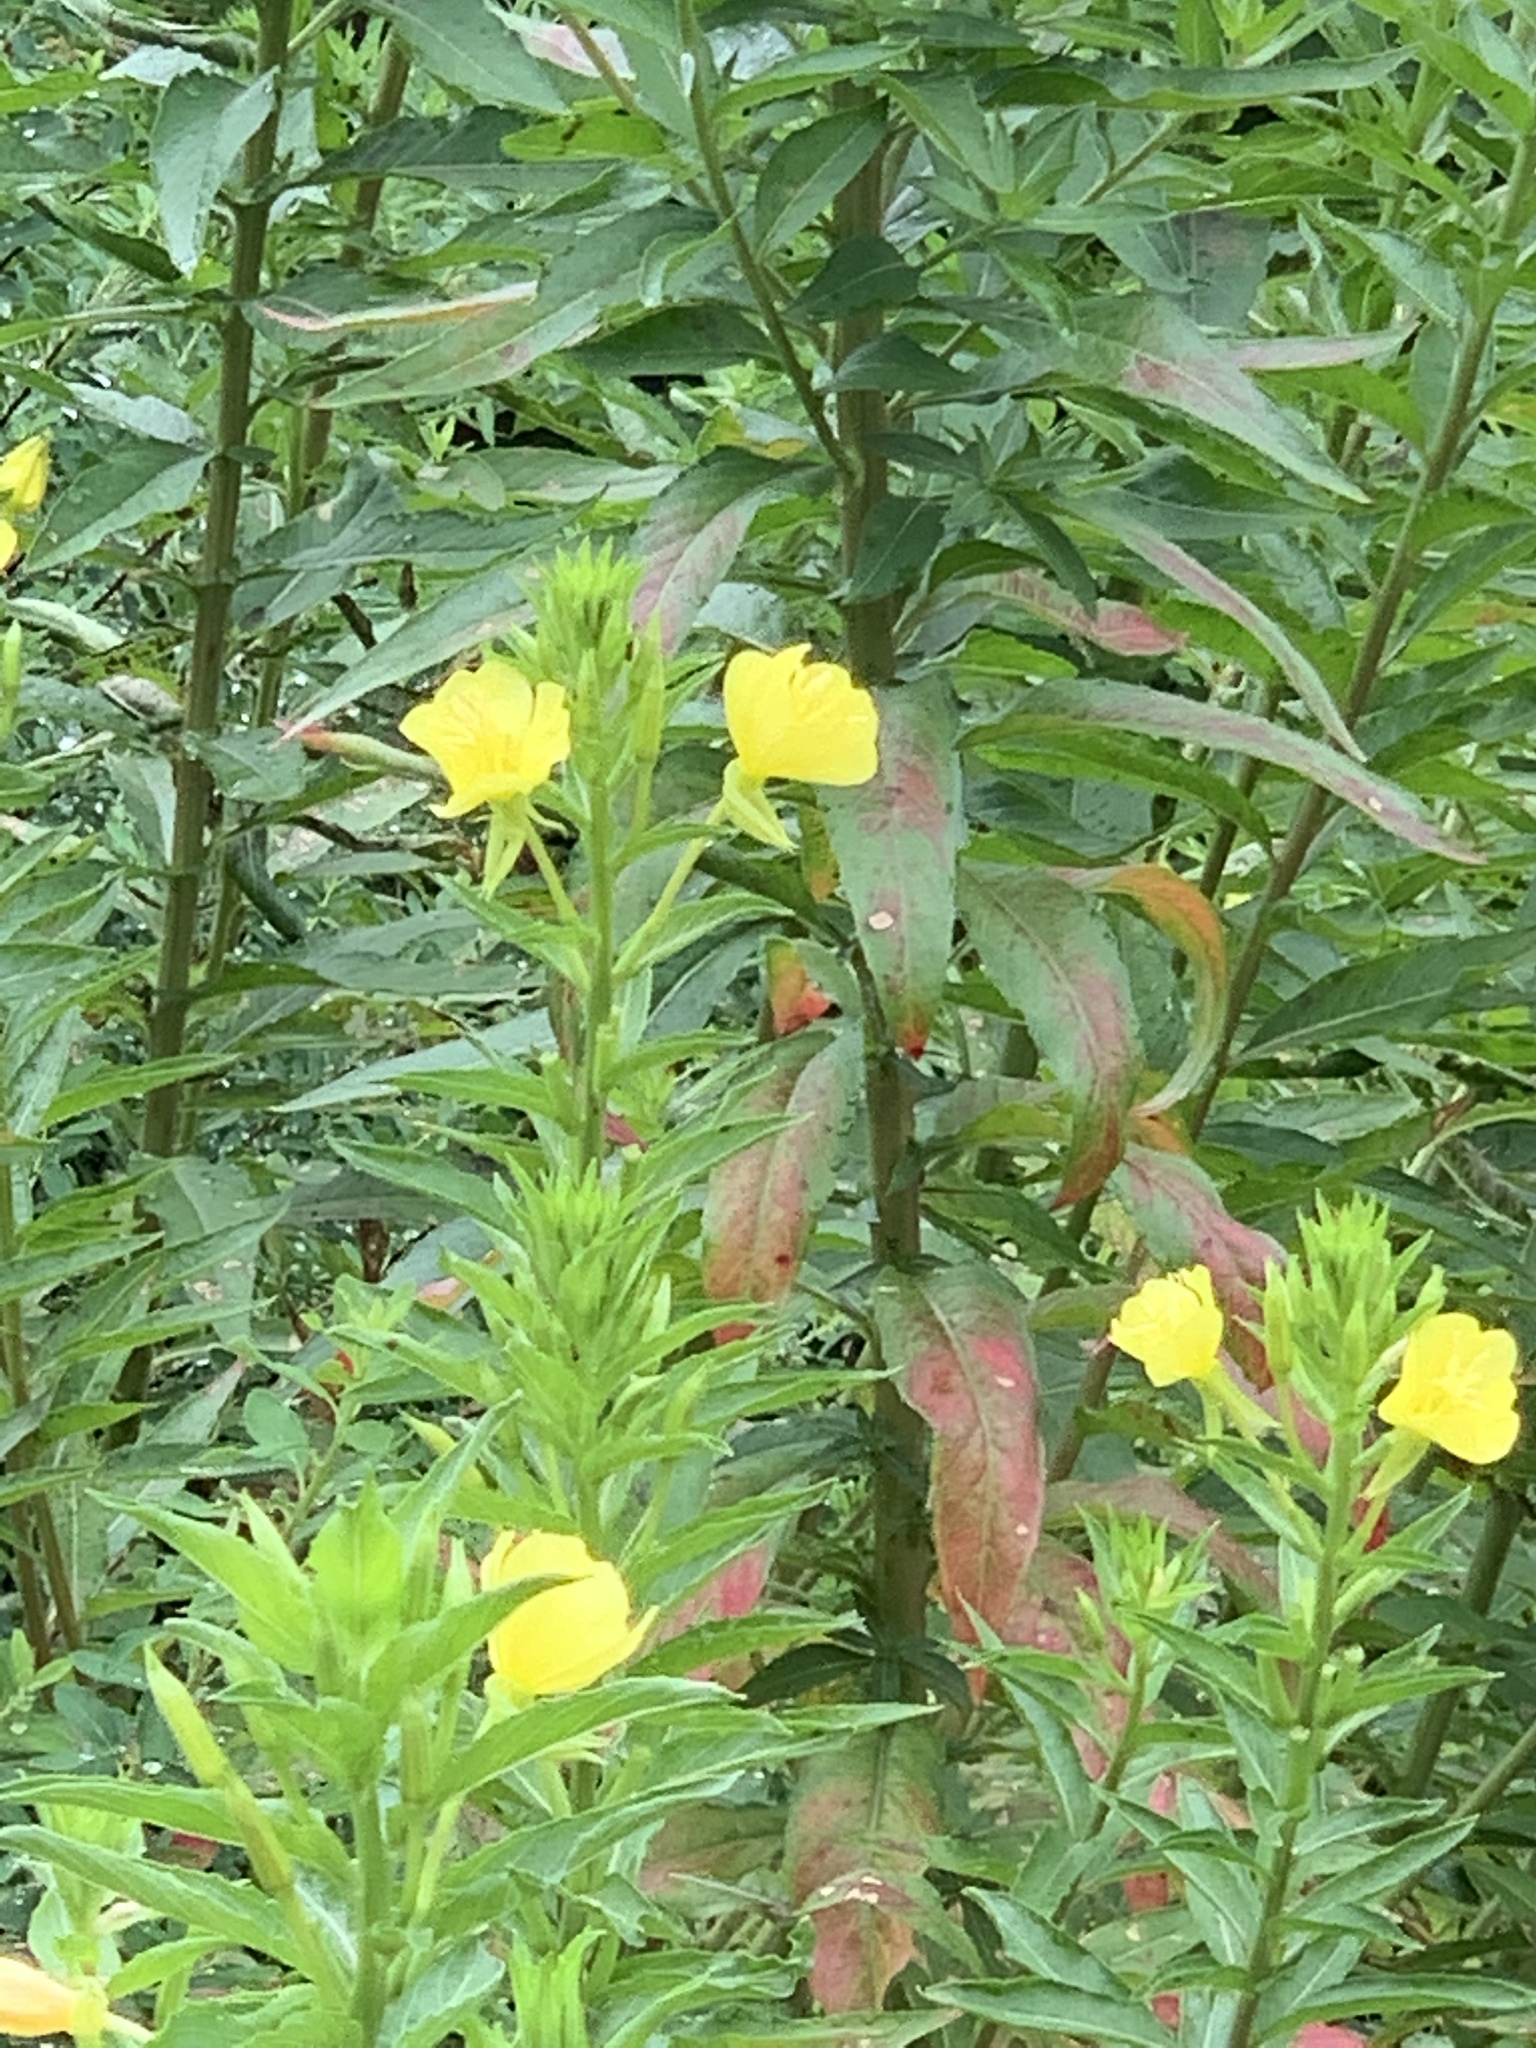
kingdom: Plantae
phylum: Tracheophyta
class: Magnoliopsida
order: Myrtales
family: Onagraceae
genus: Oenothera
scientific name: Oenothera biennis
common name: Common evening-primrose
